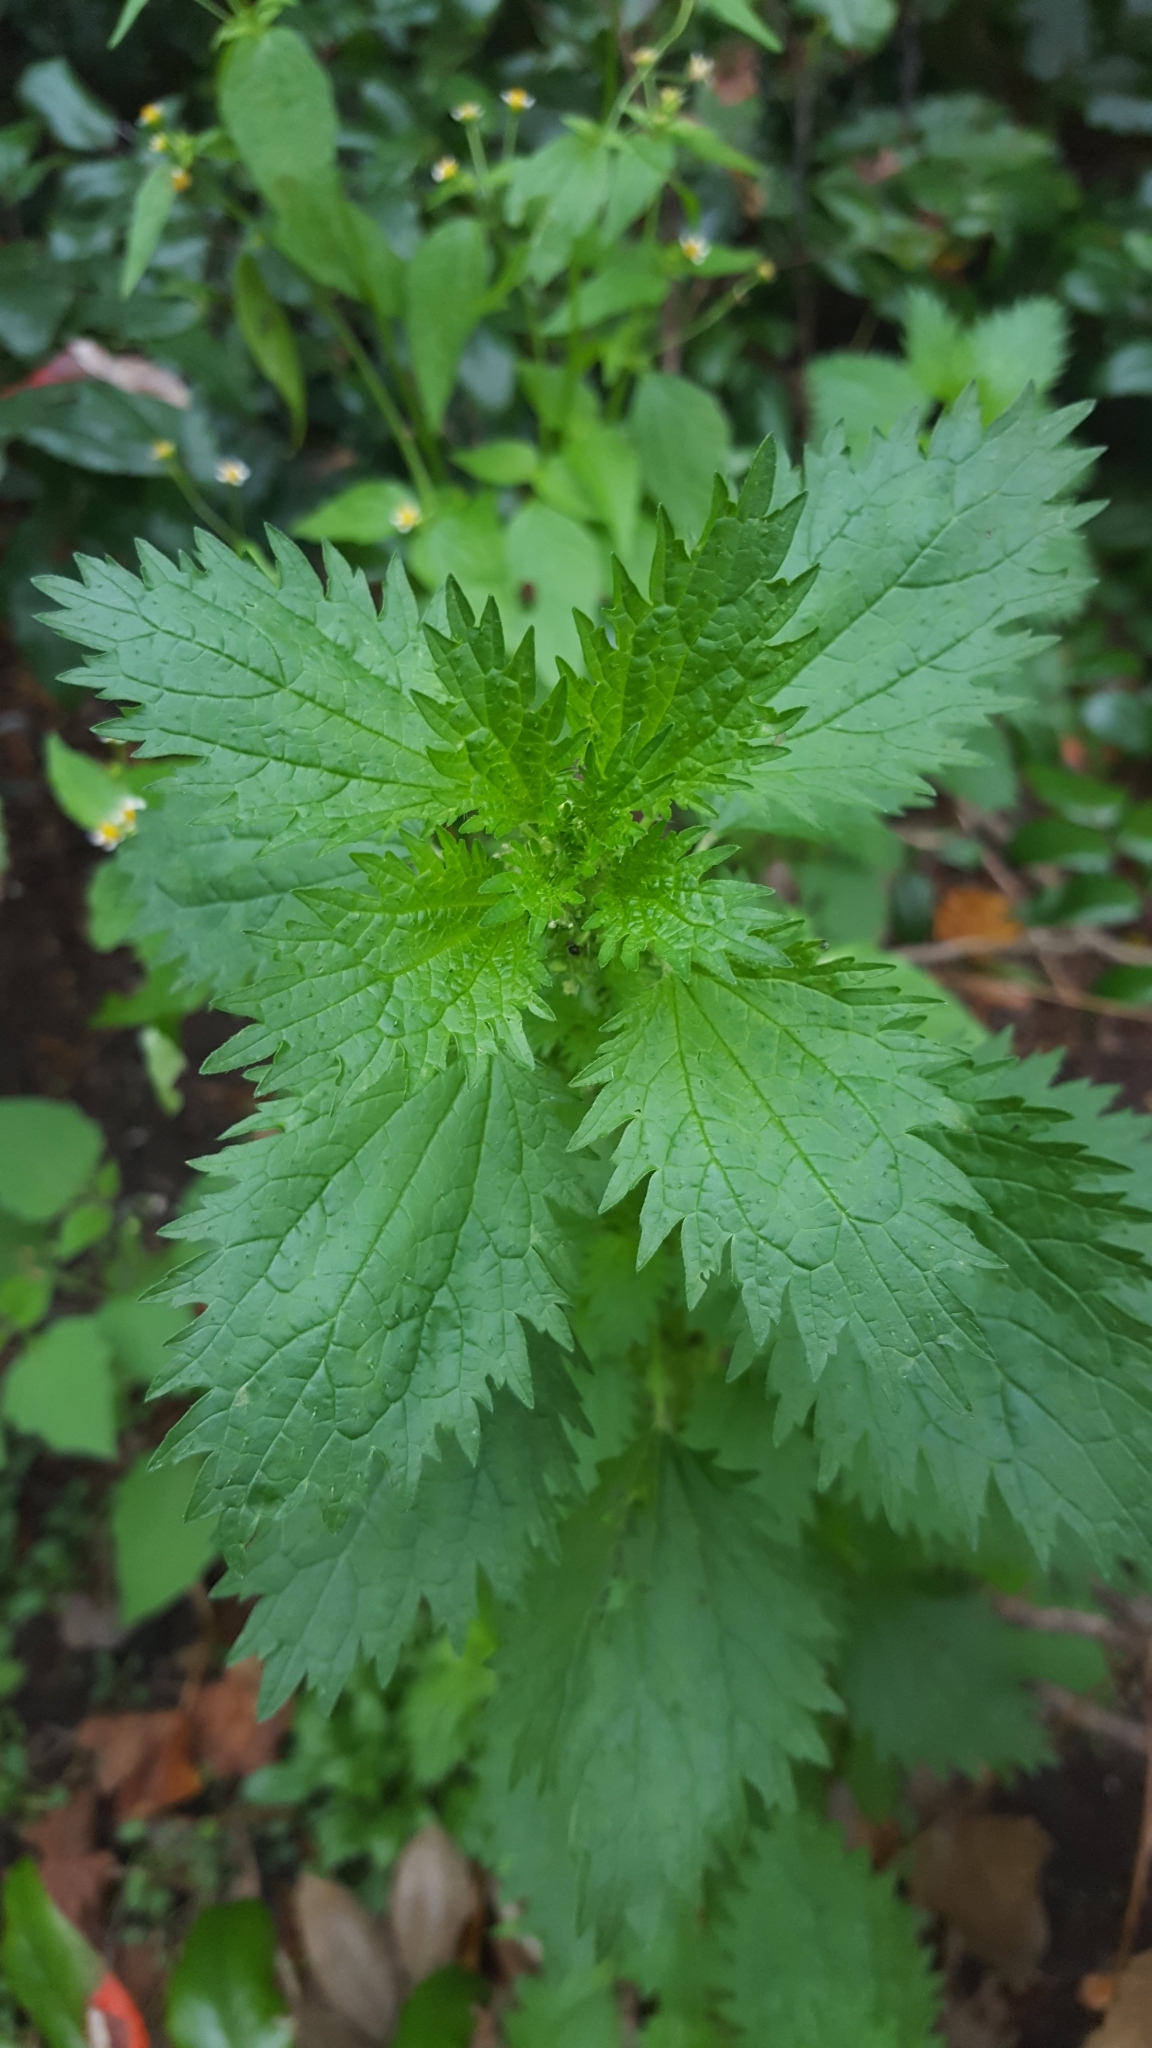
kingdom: Plantae
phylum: Tracheophyta
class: Magnoliopsida
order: Rosales
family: Urticaceae
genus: Urtica
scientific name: Urtica urens
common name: Dwarf nettle
